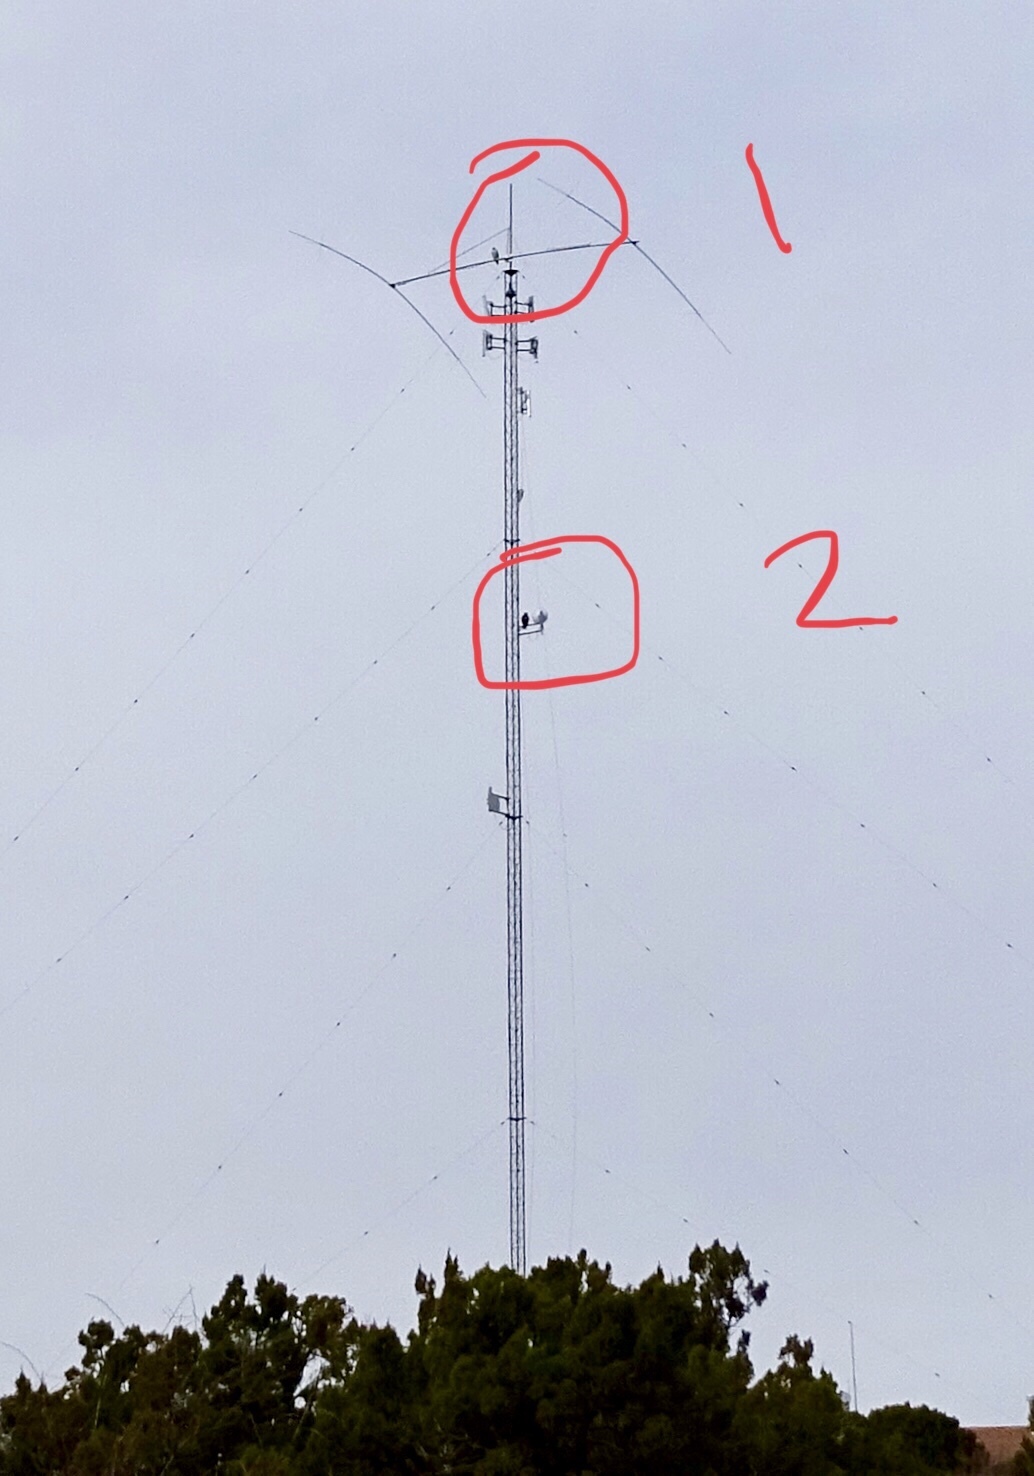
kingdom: Animalia
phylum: Chordata
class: Aves
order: Accipitriformes
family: Accipitridae
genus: Buteo
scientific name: Buteo jamaicensis
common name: Red-tailed hawk
